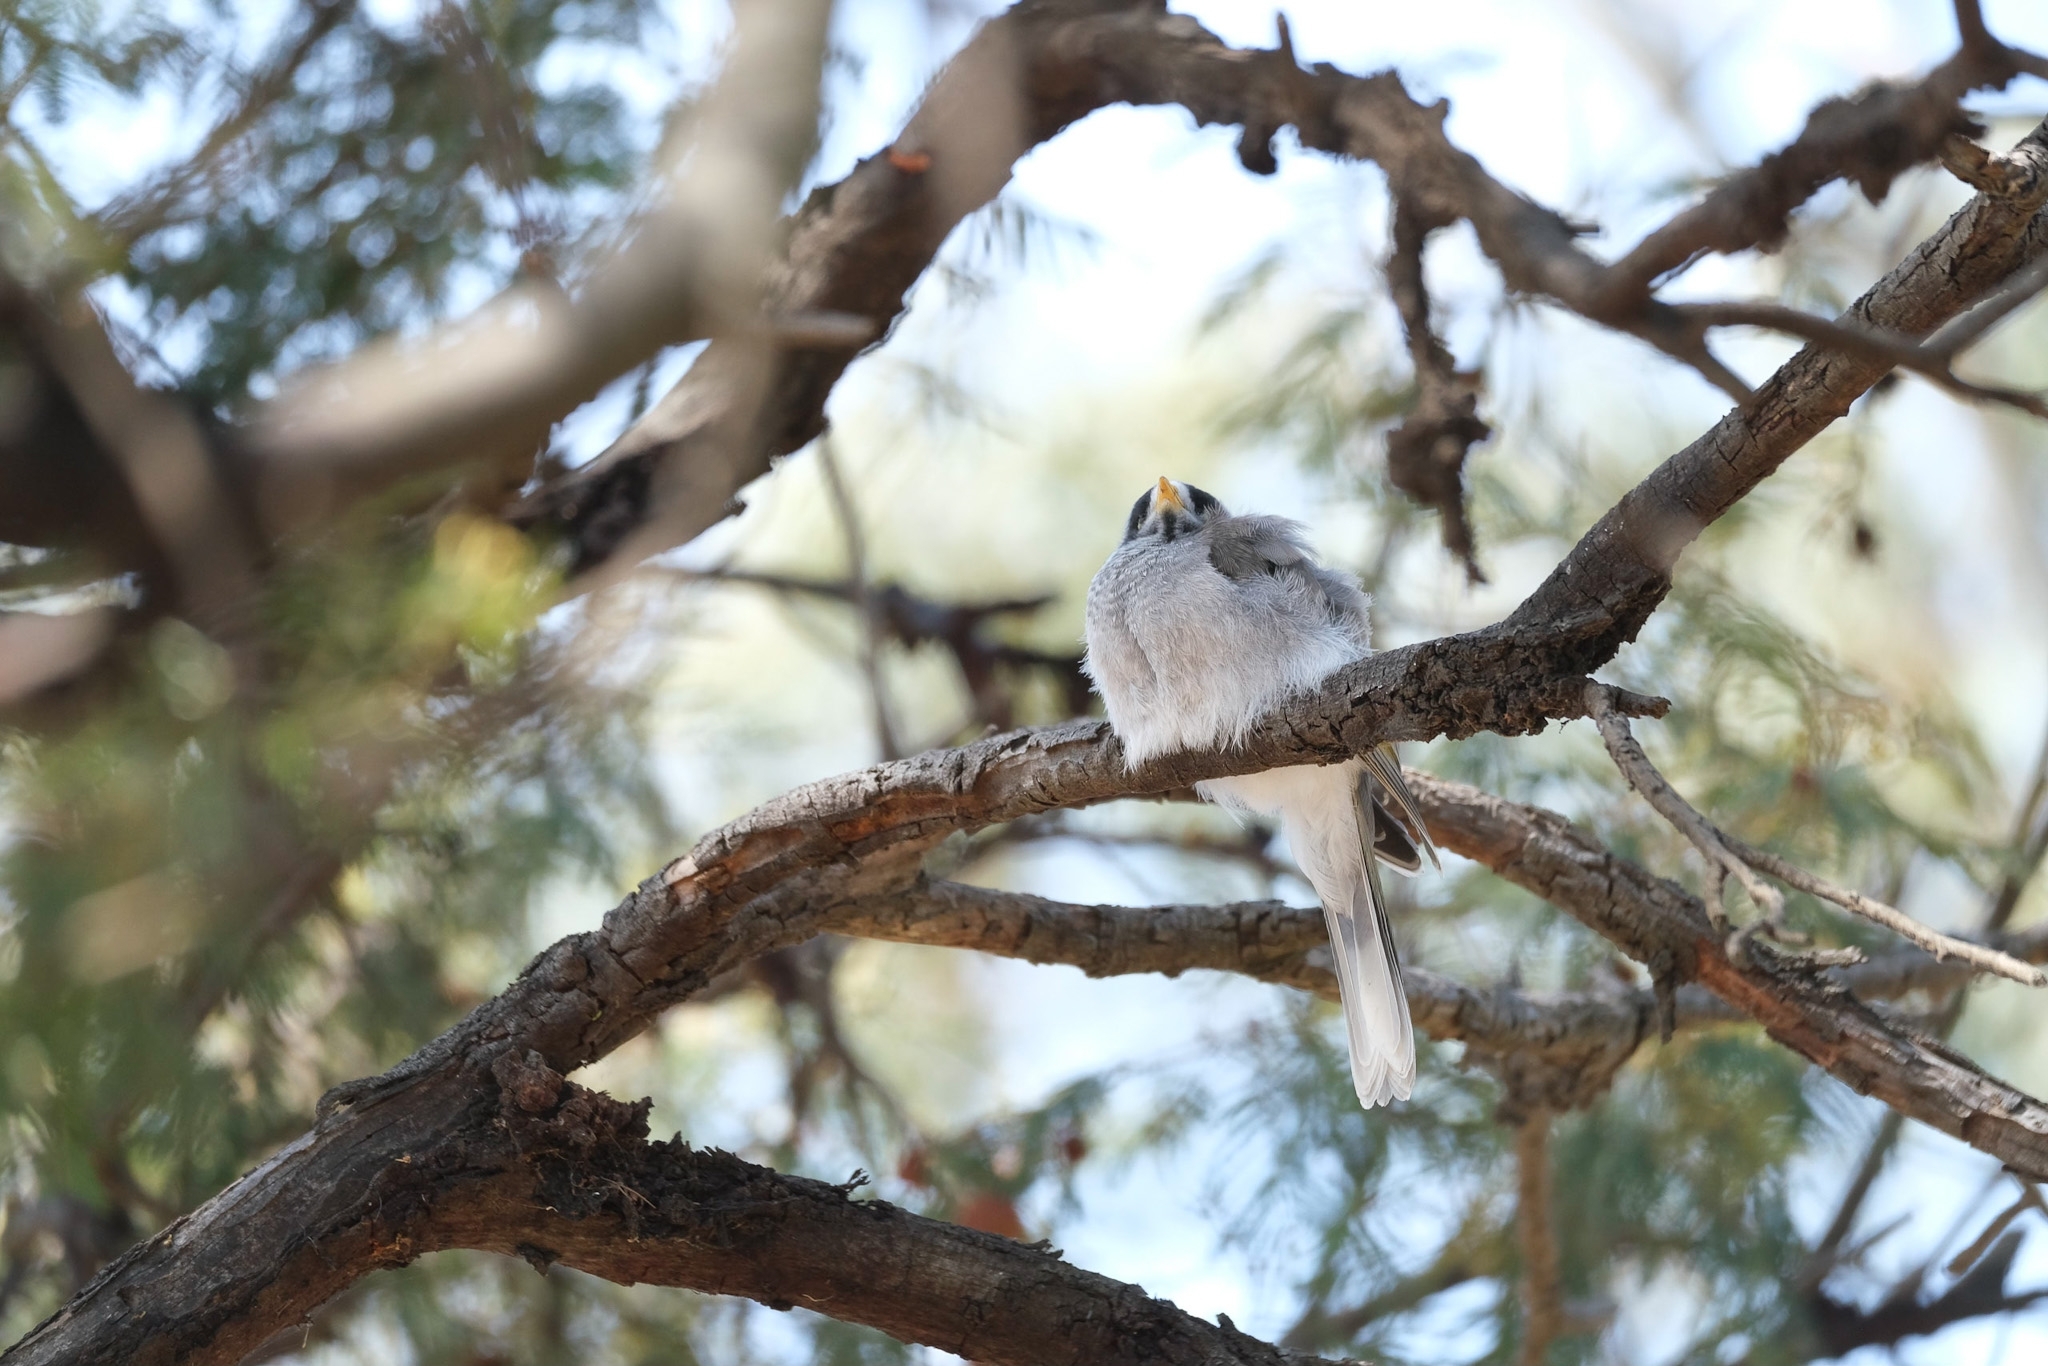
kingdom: Animalia
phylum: Chordata
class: Aves
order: Passeriformes
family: Meliphagidae
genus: Manorina
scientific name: Manorina melanocephala
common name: Noisy miner
